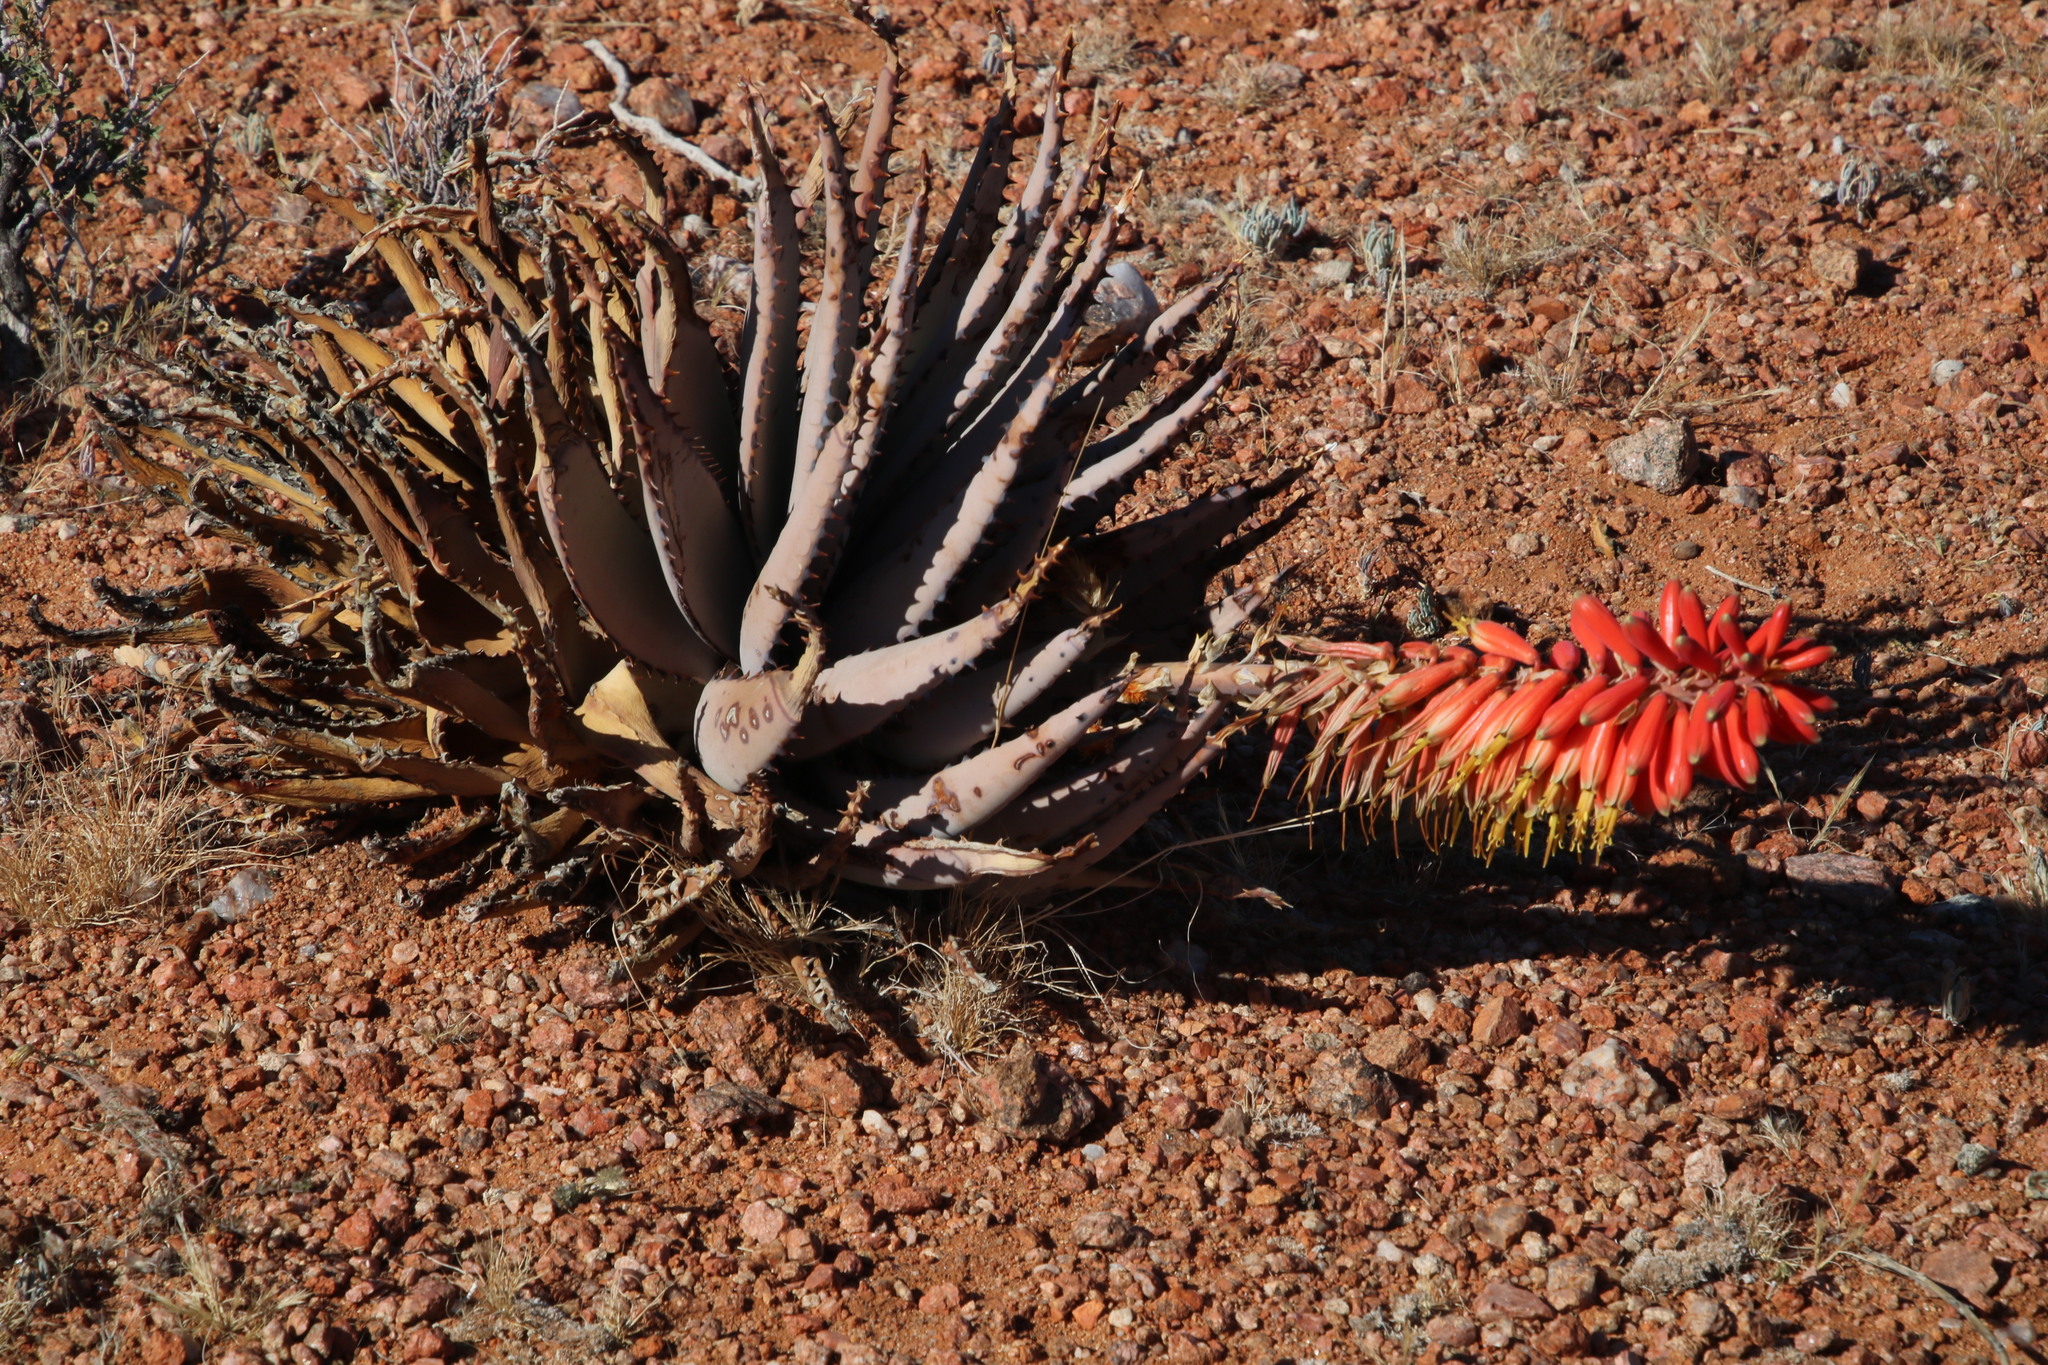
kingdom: Plantae
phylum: Tracheophyta
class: Liliopsida
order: Asparagales
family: Asphodelaceae
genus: Aloe
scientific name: Aloe claviflora
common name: Cannon aloe
